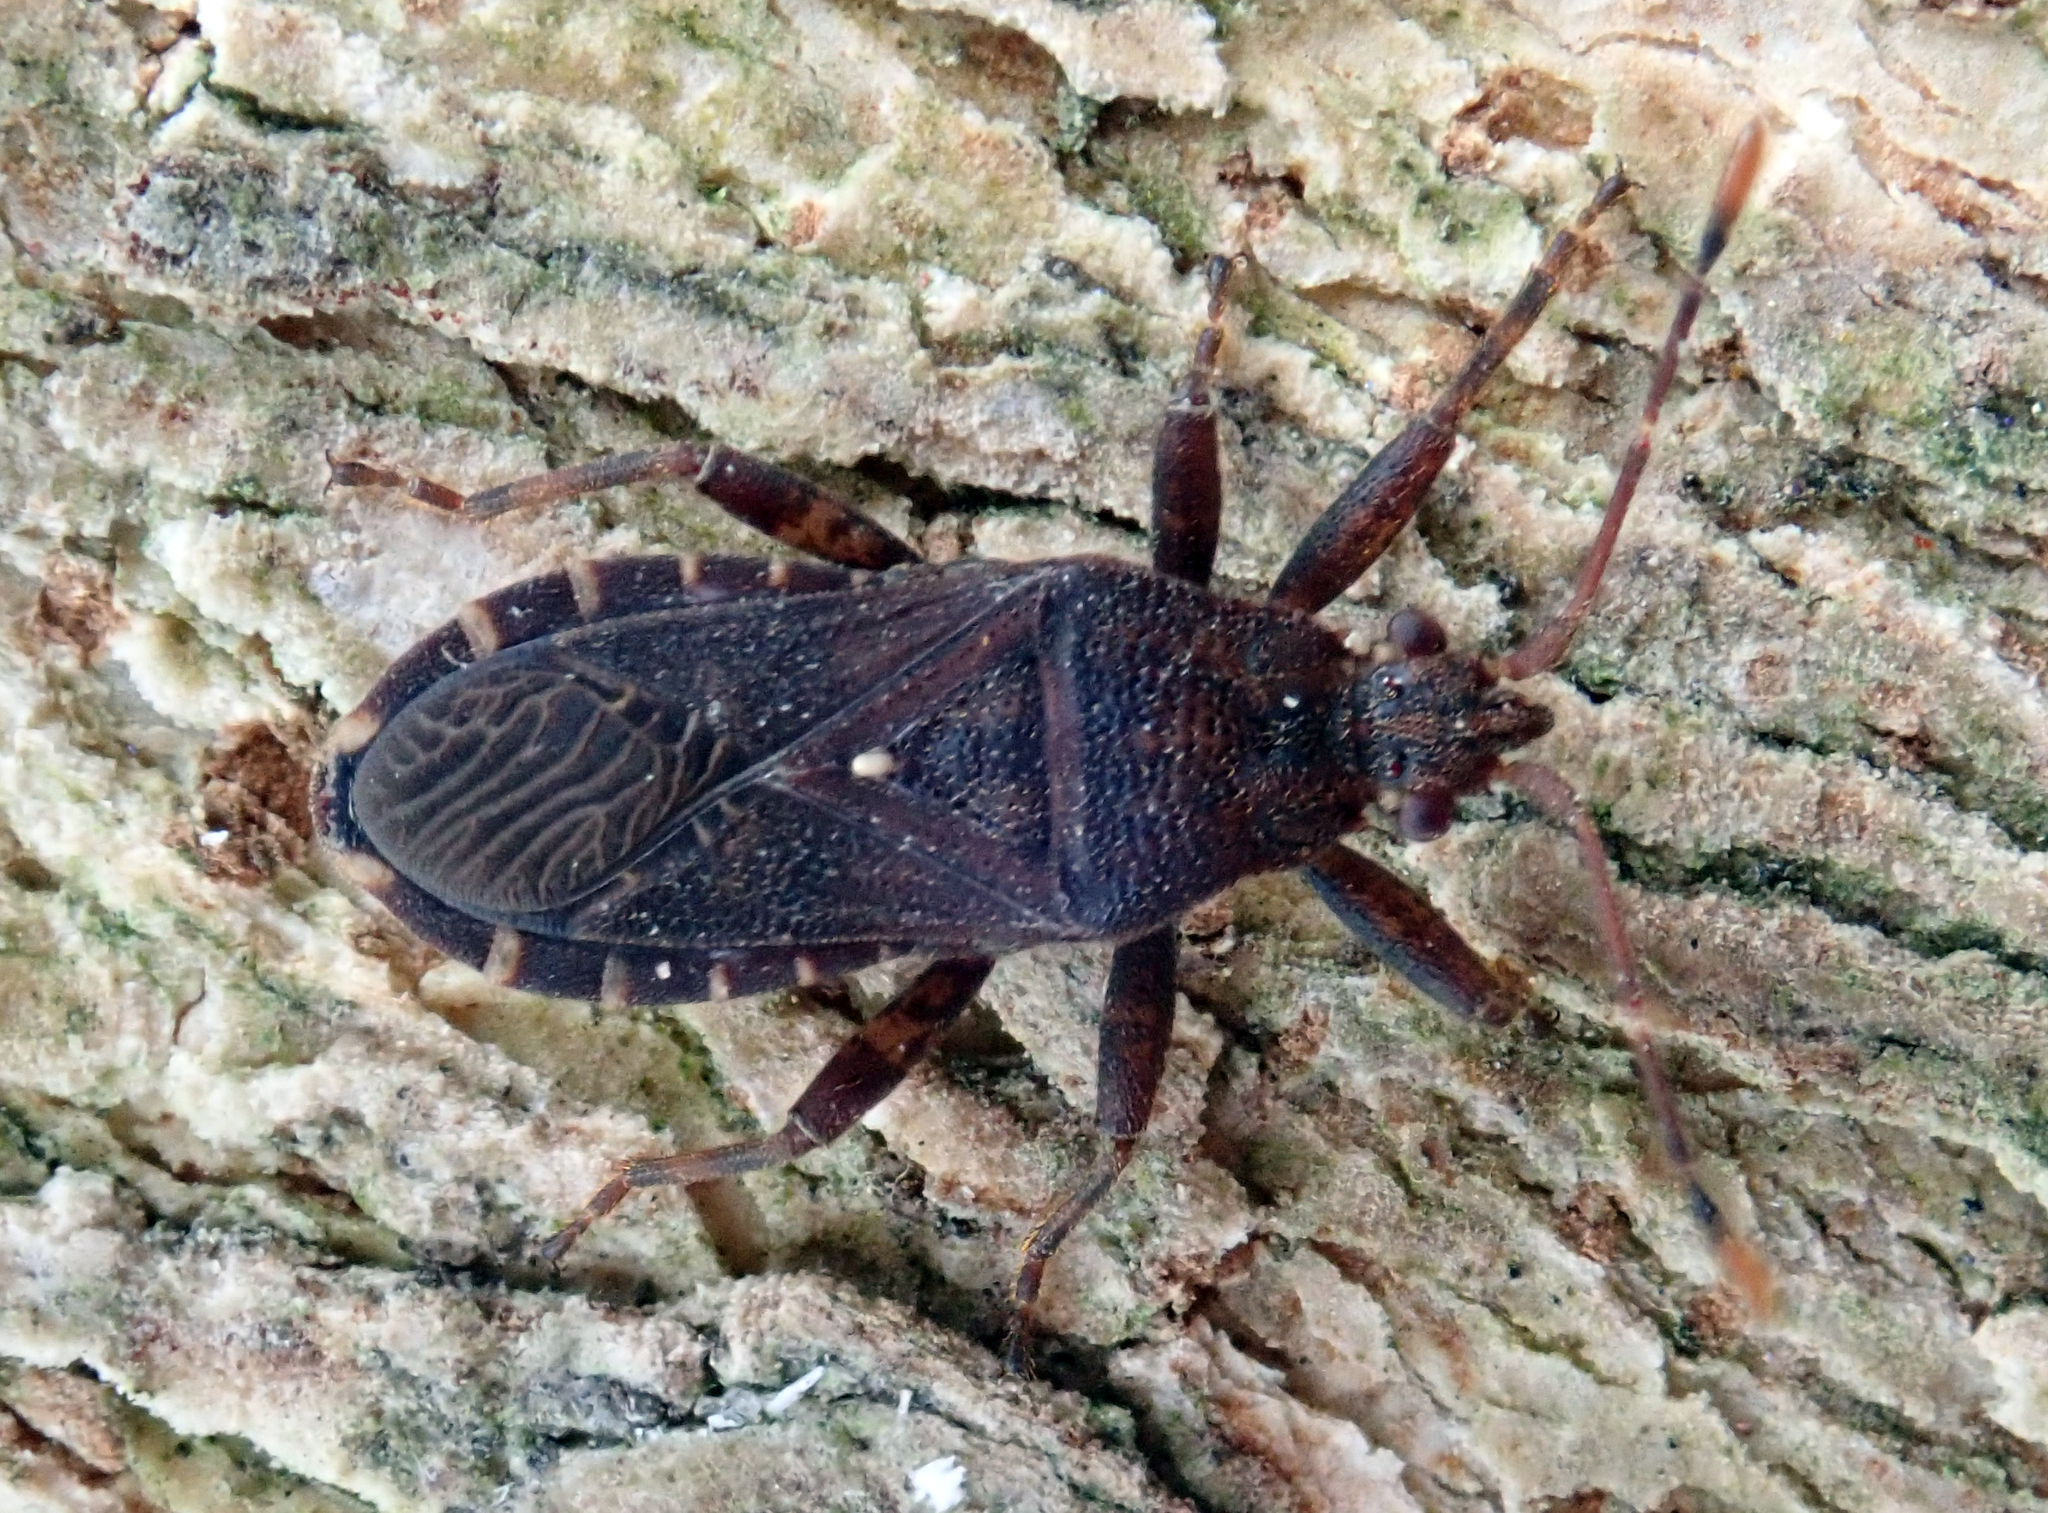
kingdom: Animalia
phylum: Arthropoda
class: Insecta
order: Hemiptera
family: Coreidae
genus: Acantholybas
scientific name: Acantholybas brunneus
